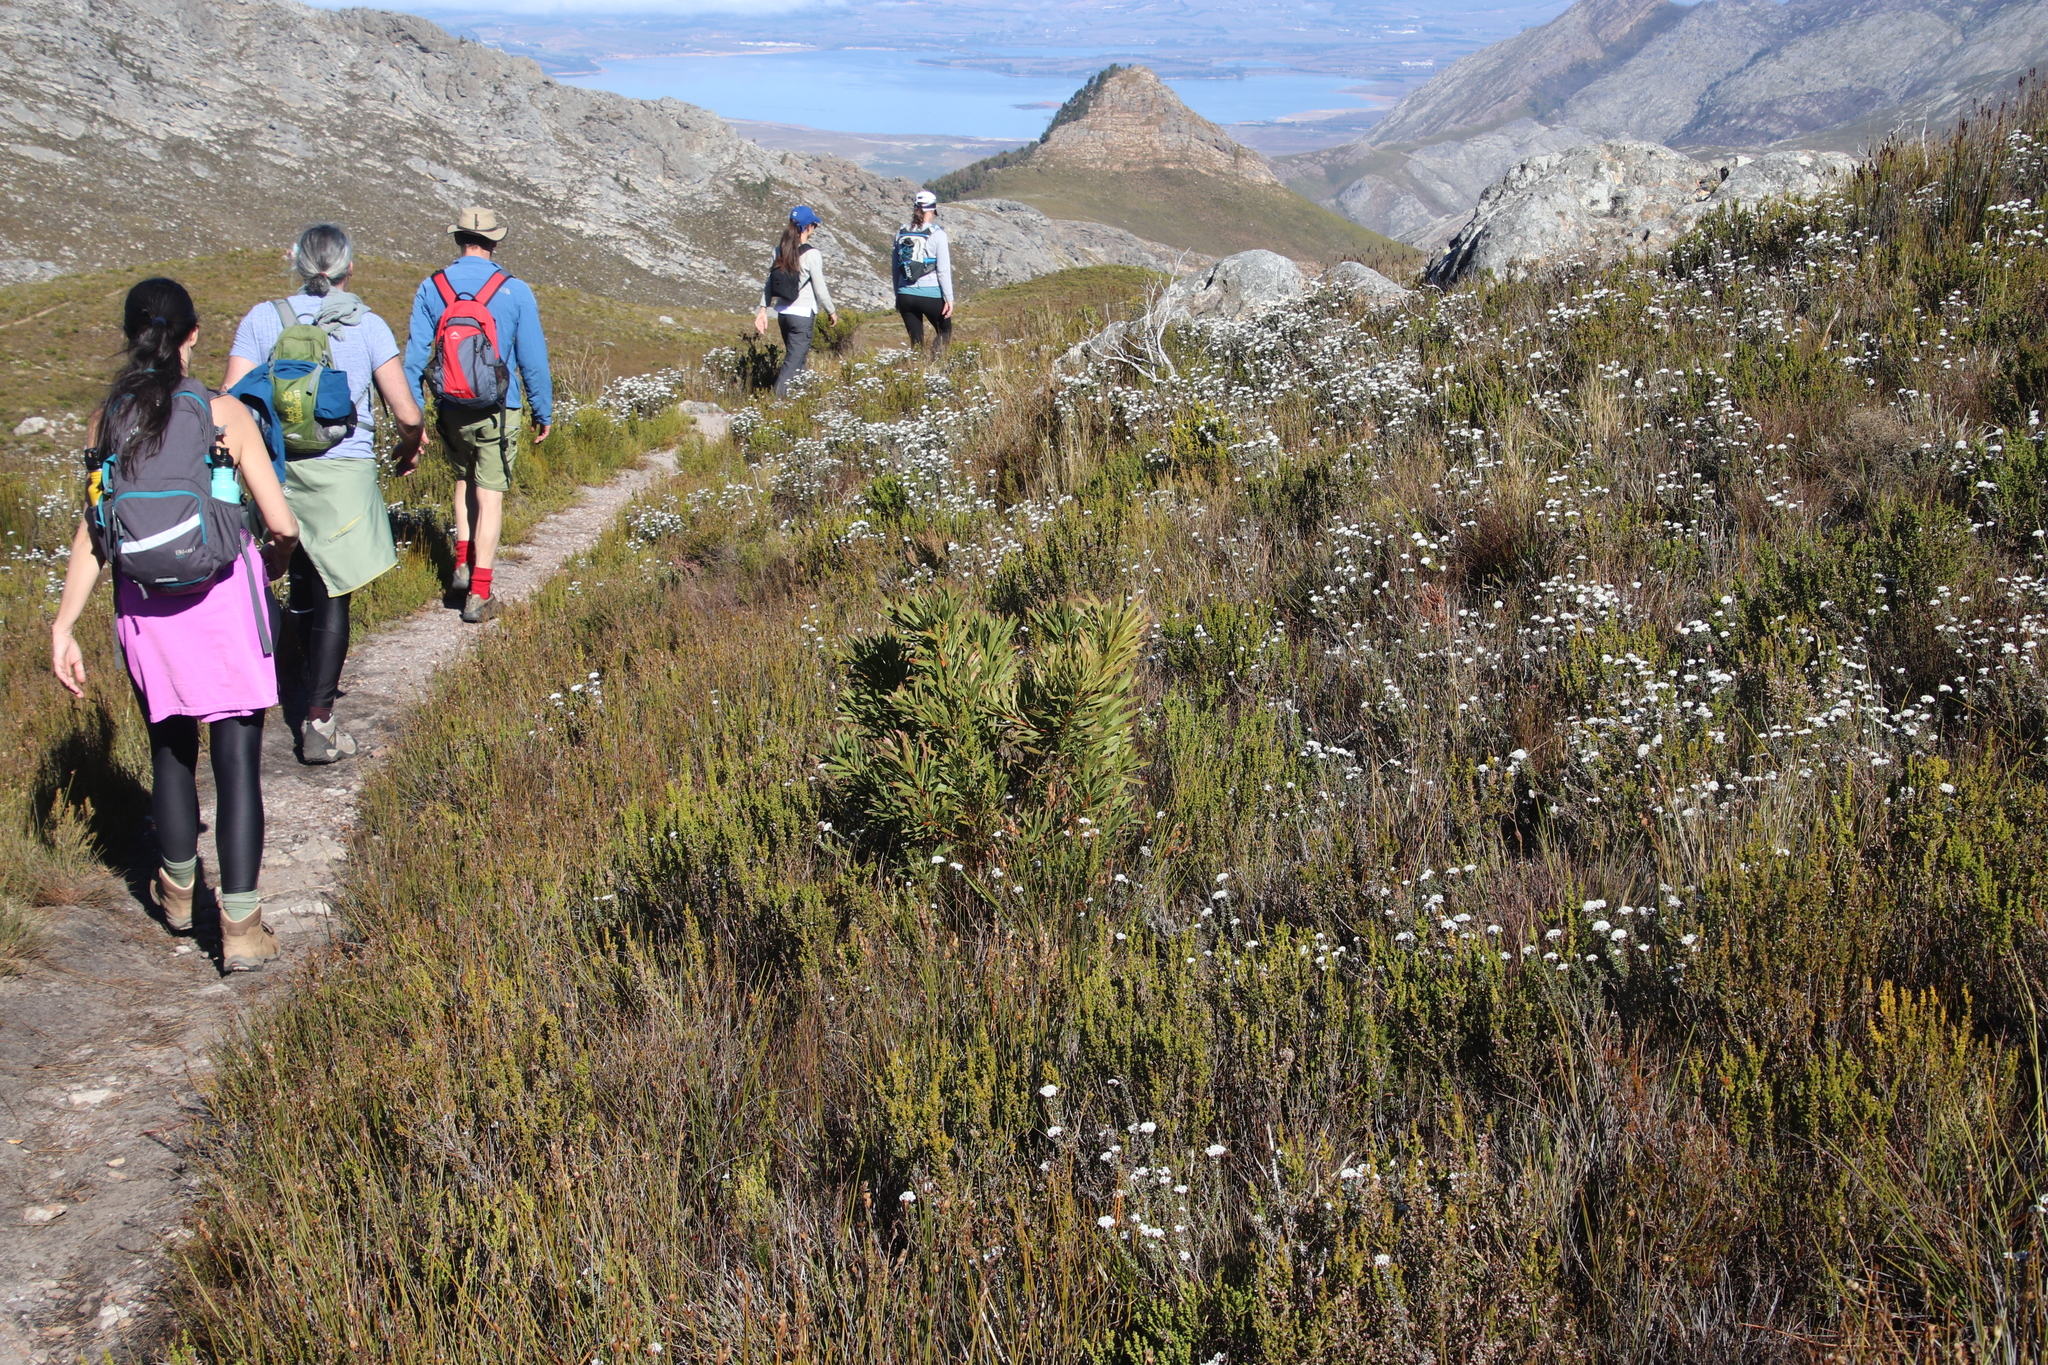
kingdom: Plantae
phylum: Tracheophyta
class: Magnoliopsida
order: Proteales
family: Proteaceae
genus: Protea
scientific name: Protea repens
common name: Sugarbush
